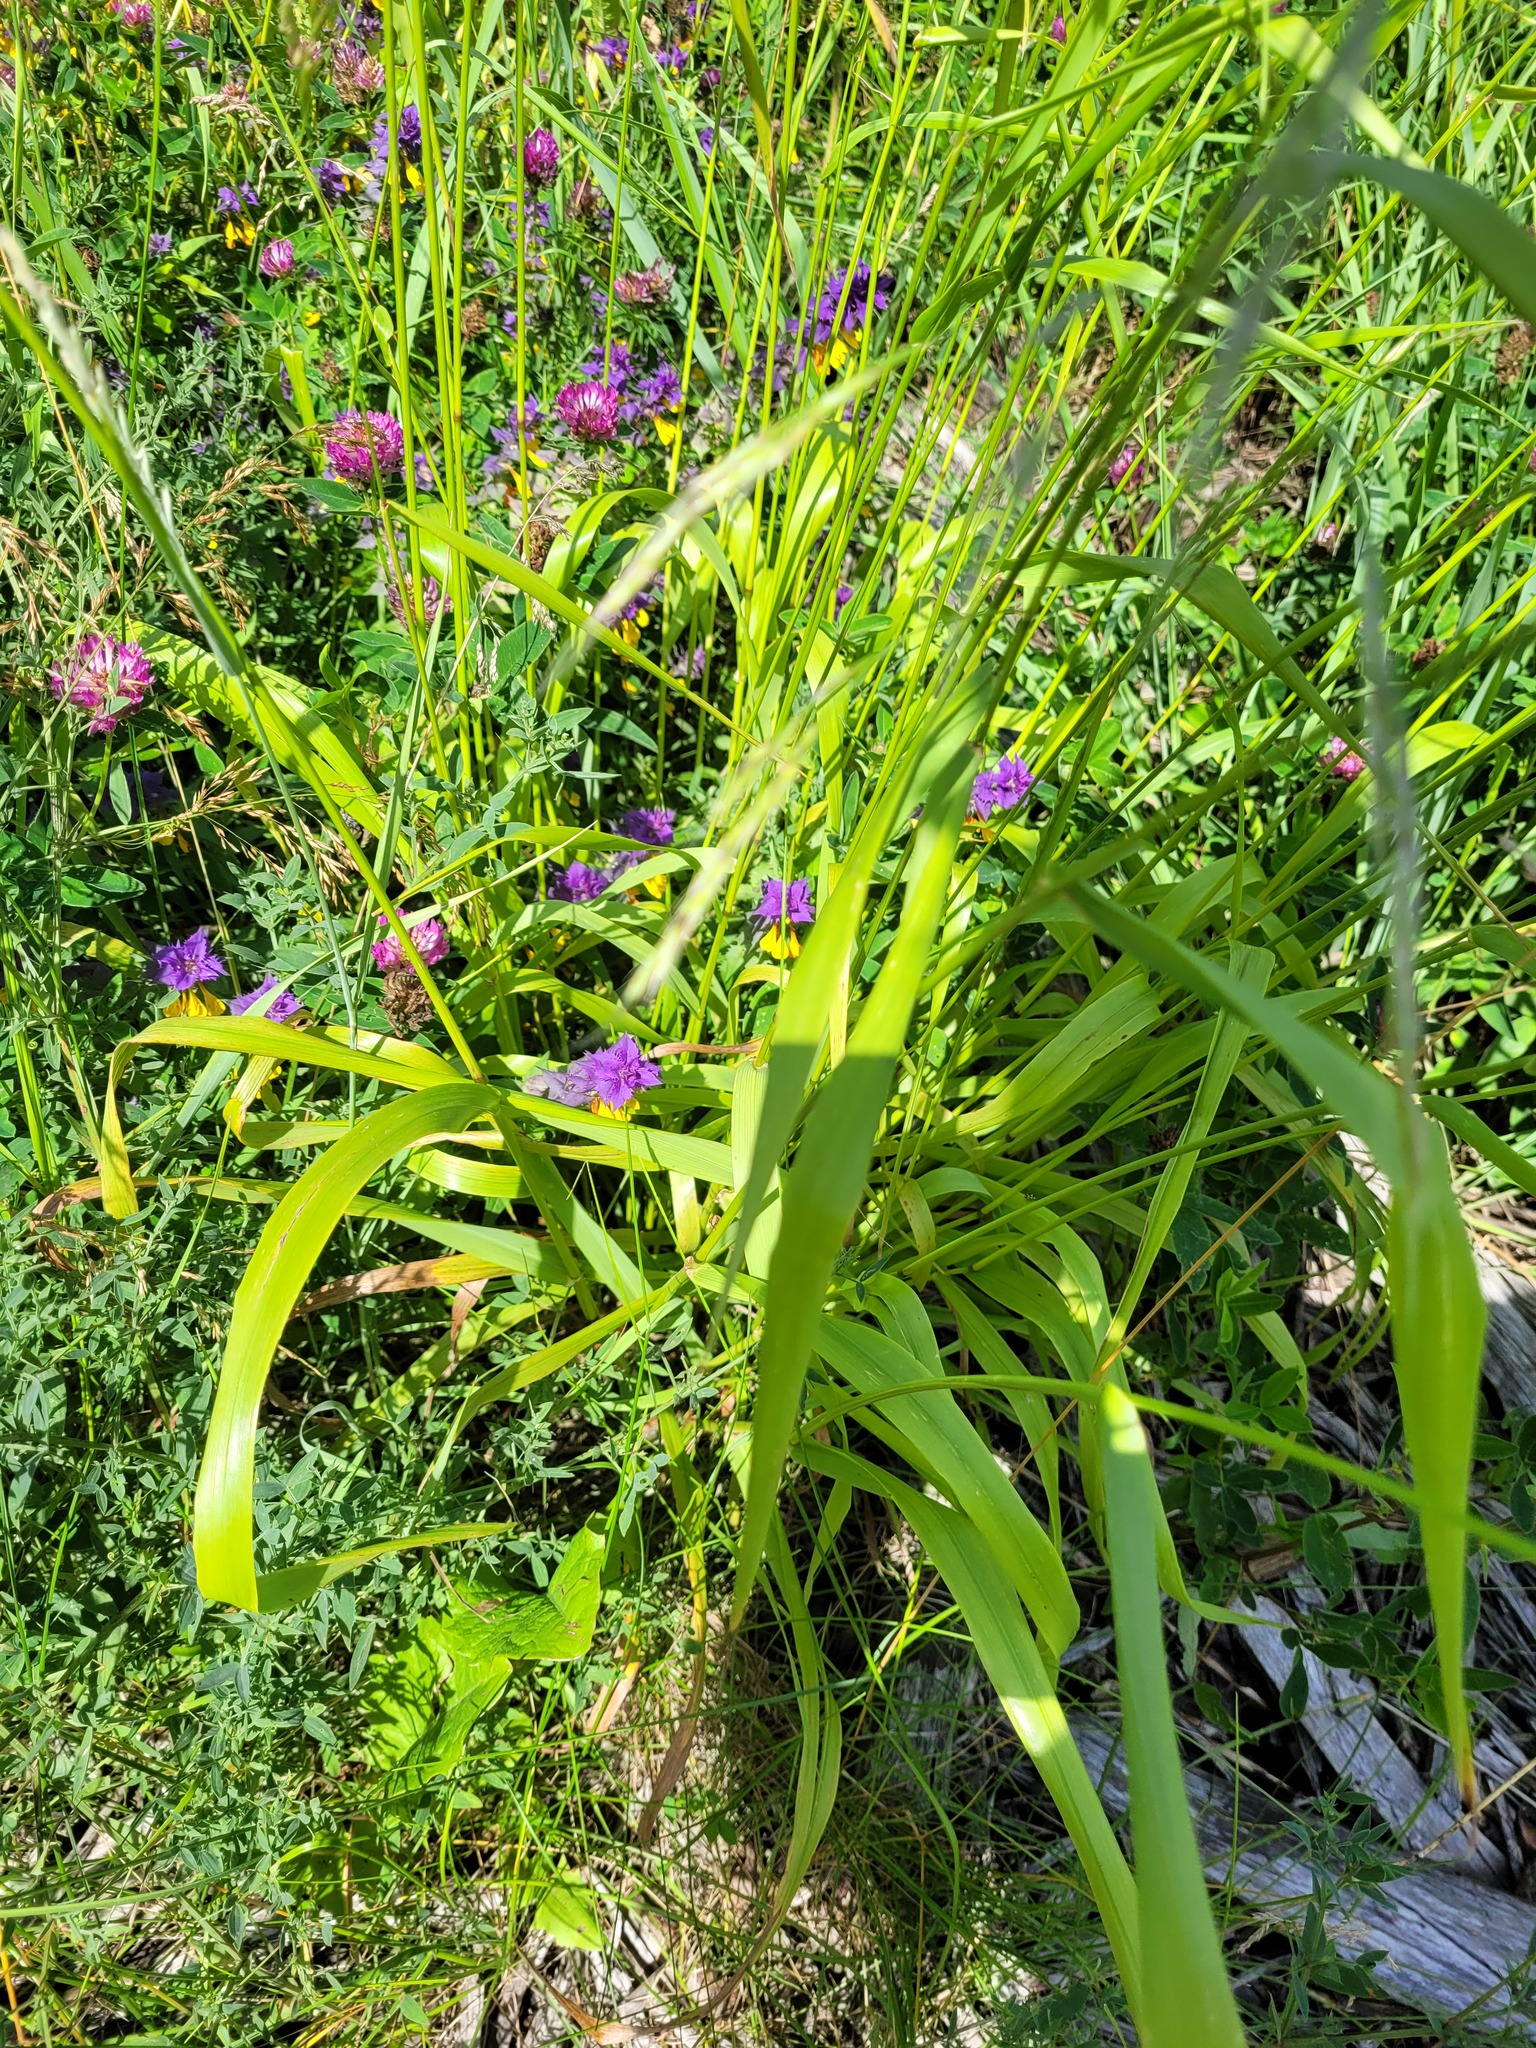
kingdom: Plantae
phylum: Tracheophyta
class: Liliopsida
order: Poales
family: Poaceae
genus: Lolium
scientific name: Lolium giganteum
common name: Giant fescue
